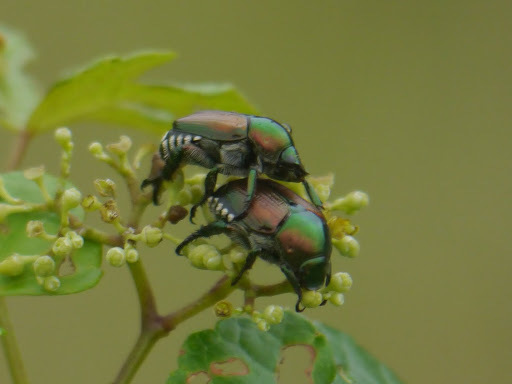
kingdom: Animalia
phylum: Arthropoda
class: Insecta
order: Coleoptera
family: Scarabaeidae
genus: Popillia
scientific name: Popillia japonica
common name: Japanese beetle
